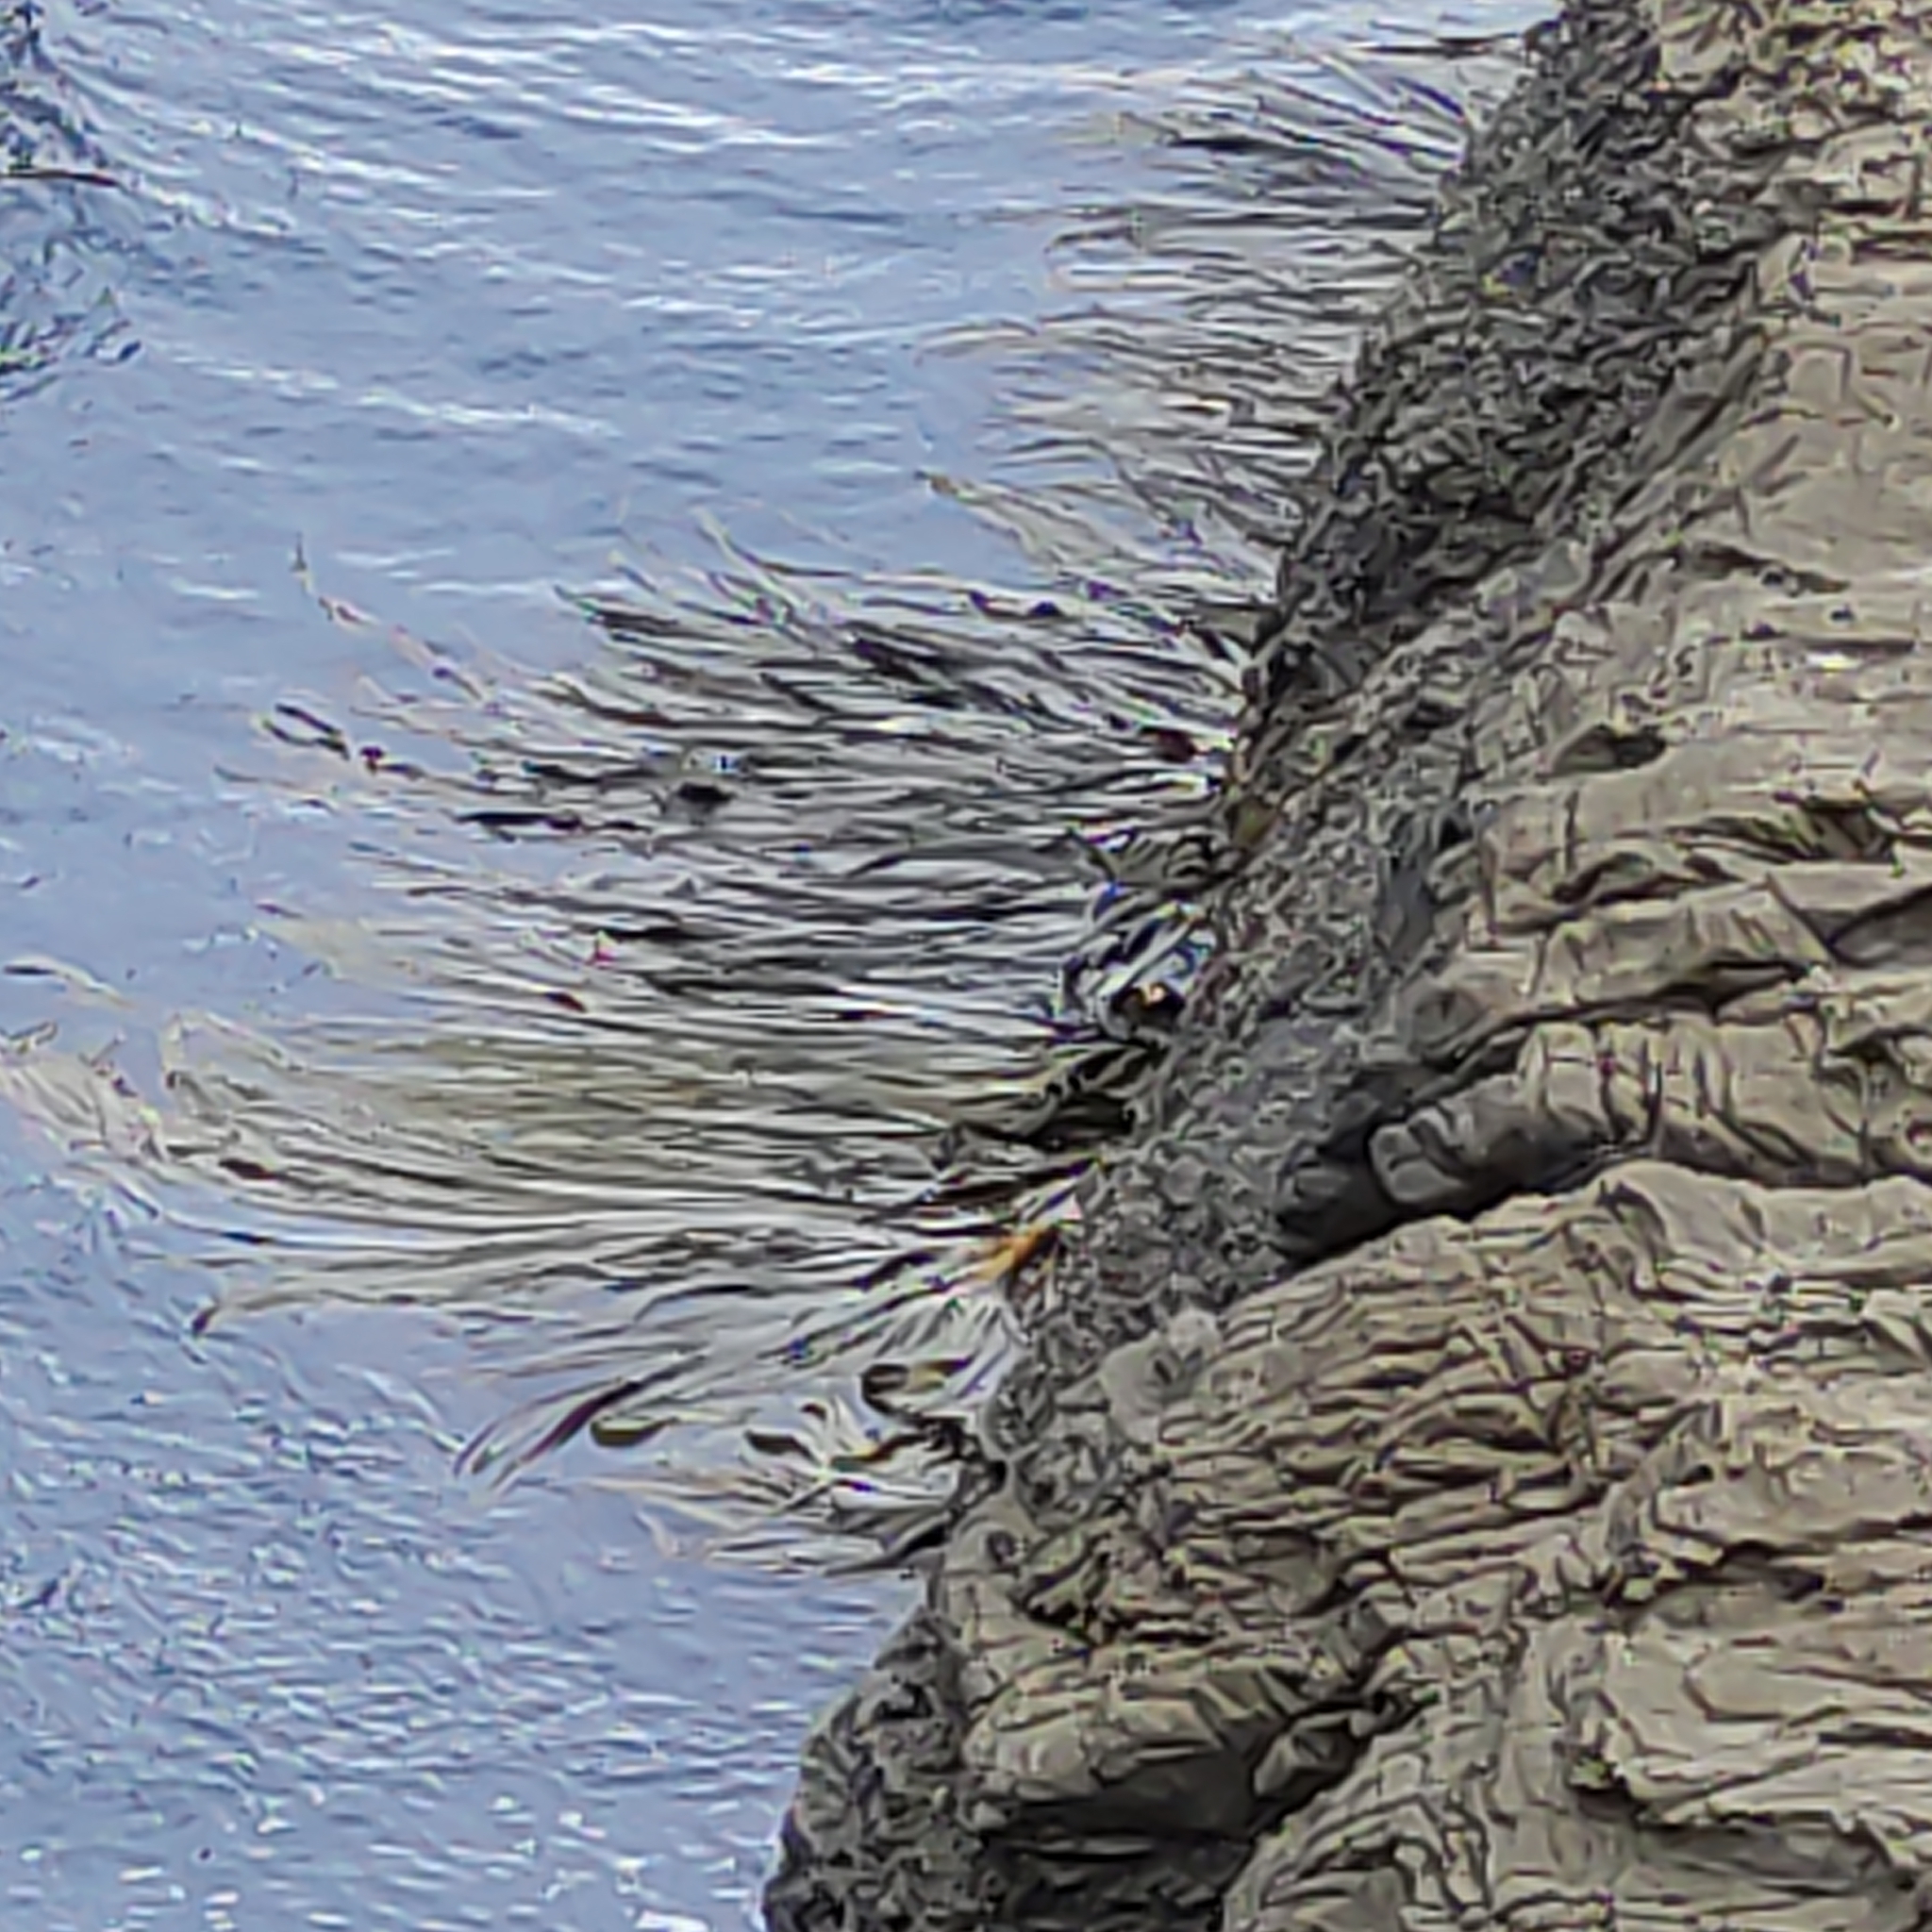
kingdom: Chromista
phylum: Ochrophyta
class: Phaeophyceae
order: Fucales
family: Durvillaeaceae
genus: Durvillaea
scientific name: Durvillaea antarctica
